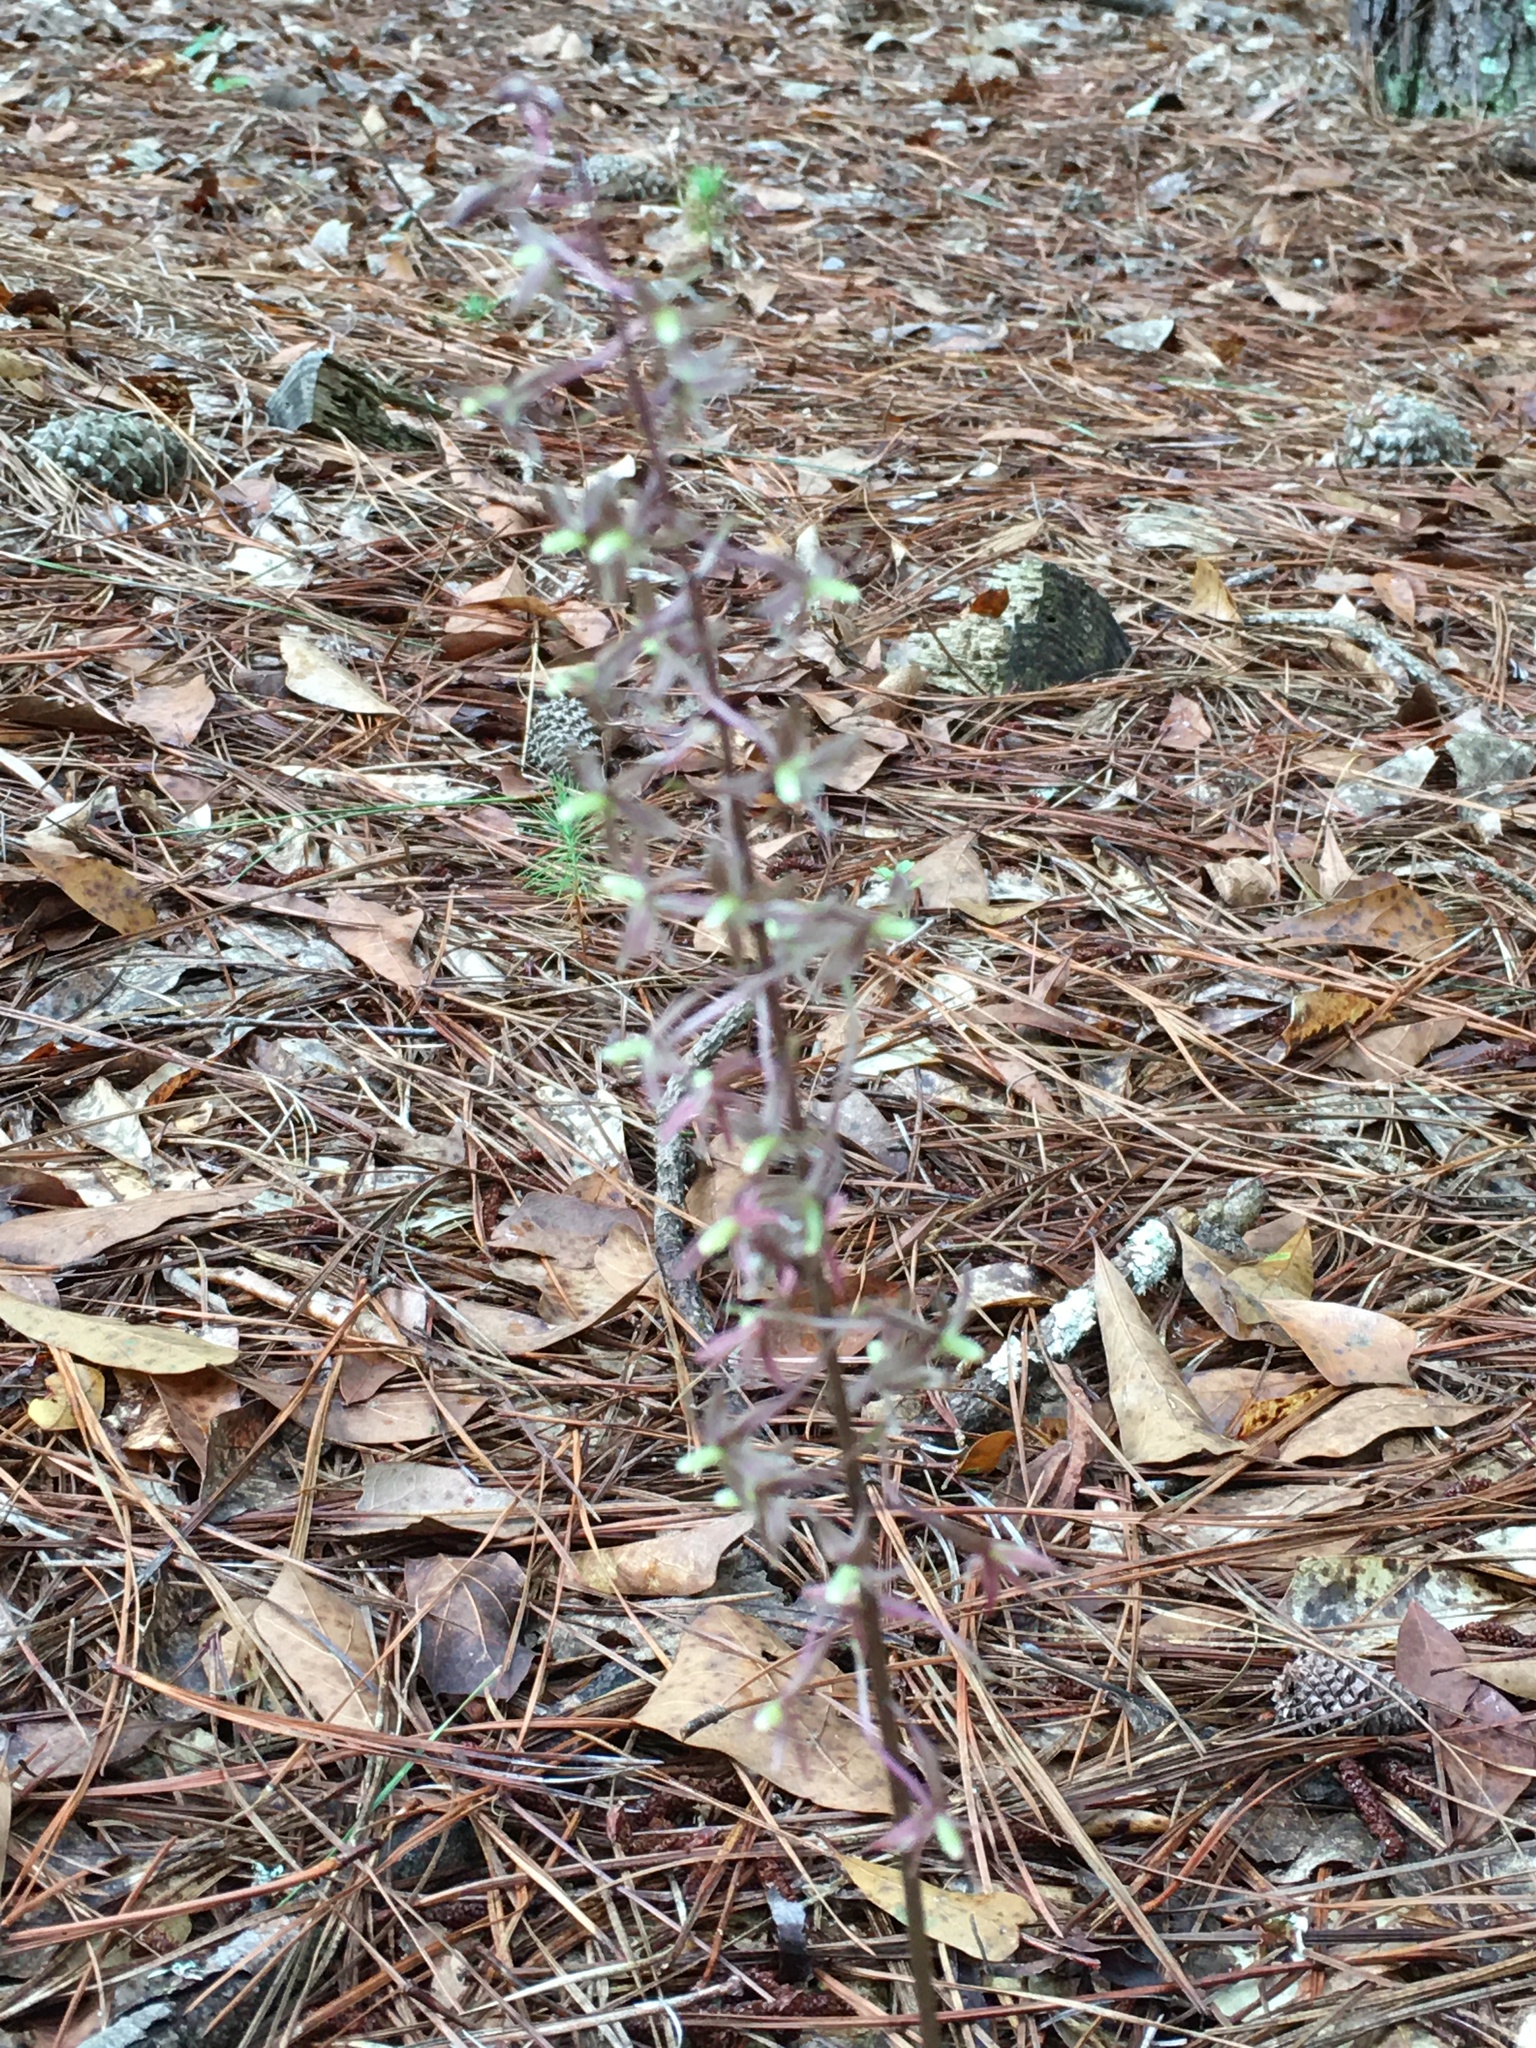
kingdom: Plantae
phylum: Tracheophyta
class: Liliopsida
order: Asparagales
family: Orchidaceae
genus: Tipularia
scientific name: Tipularia discolor
